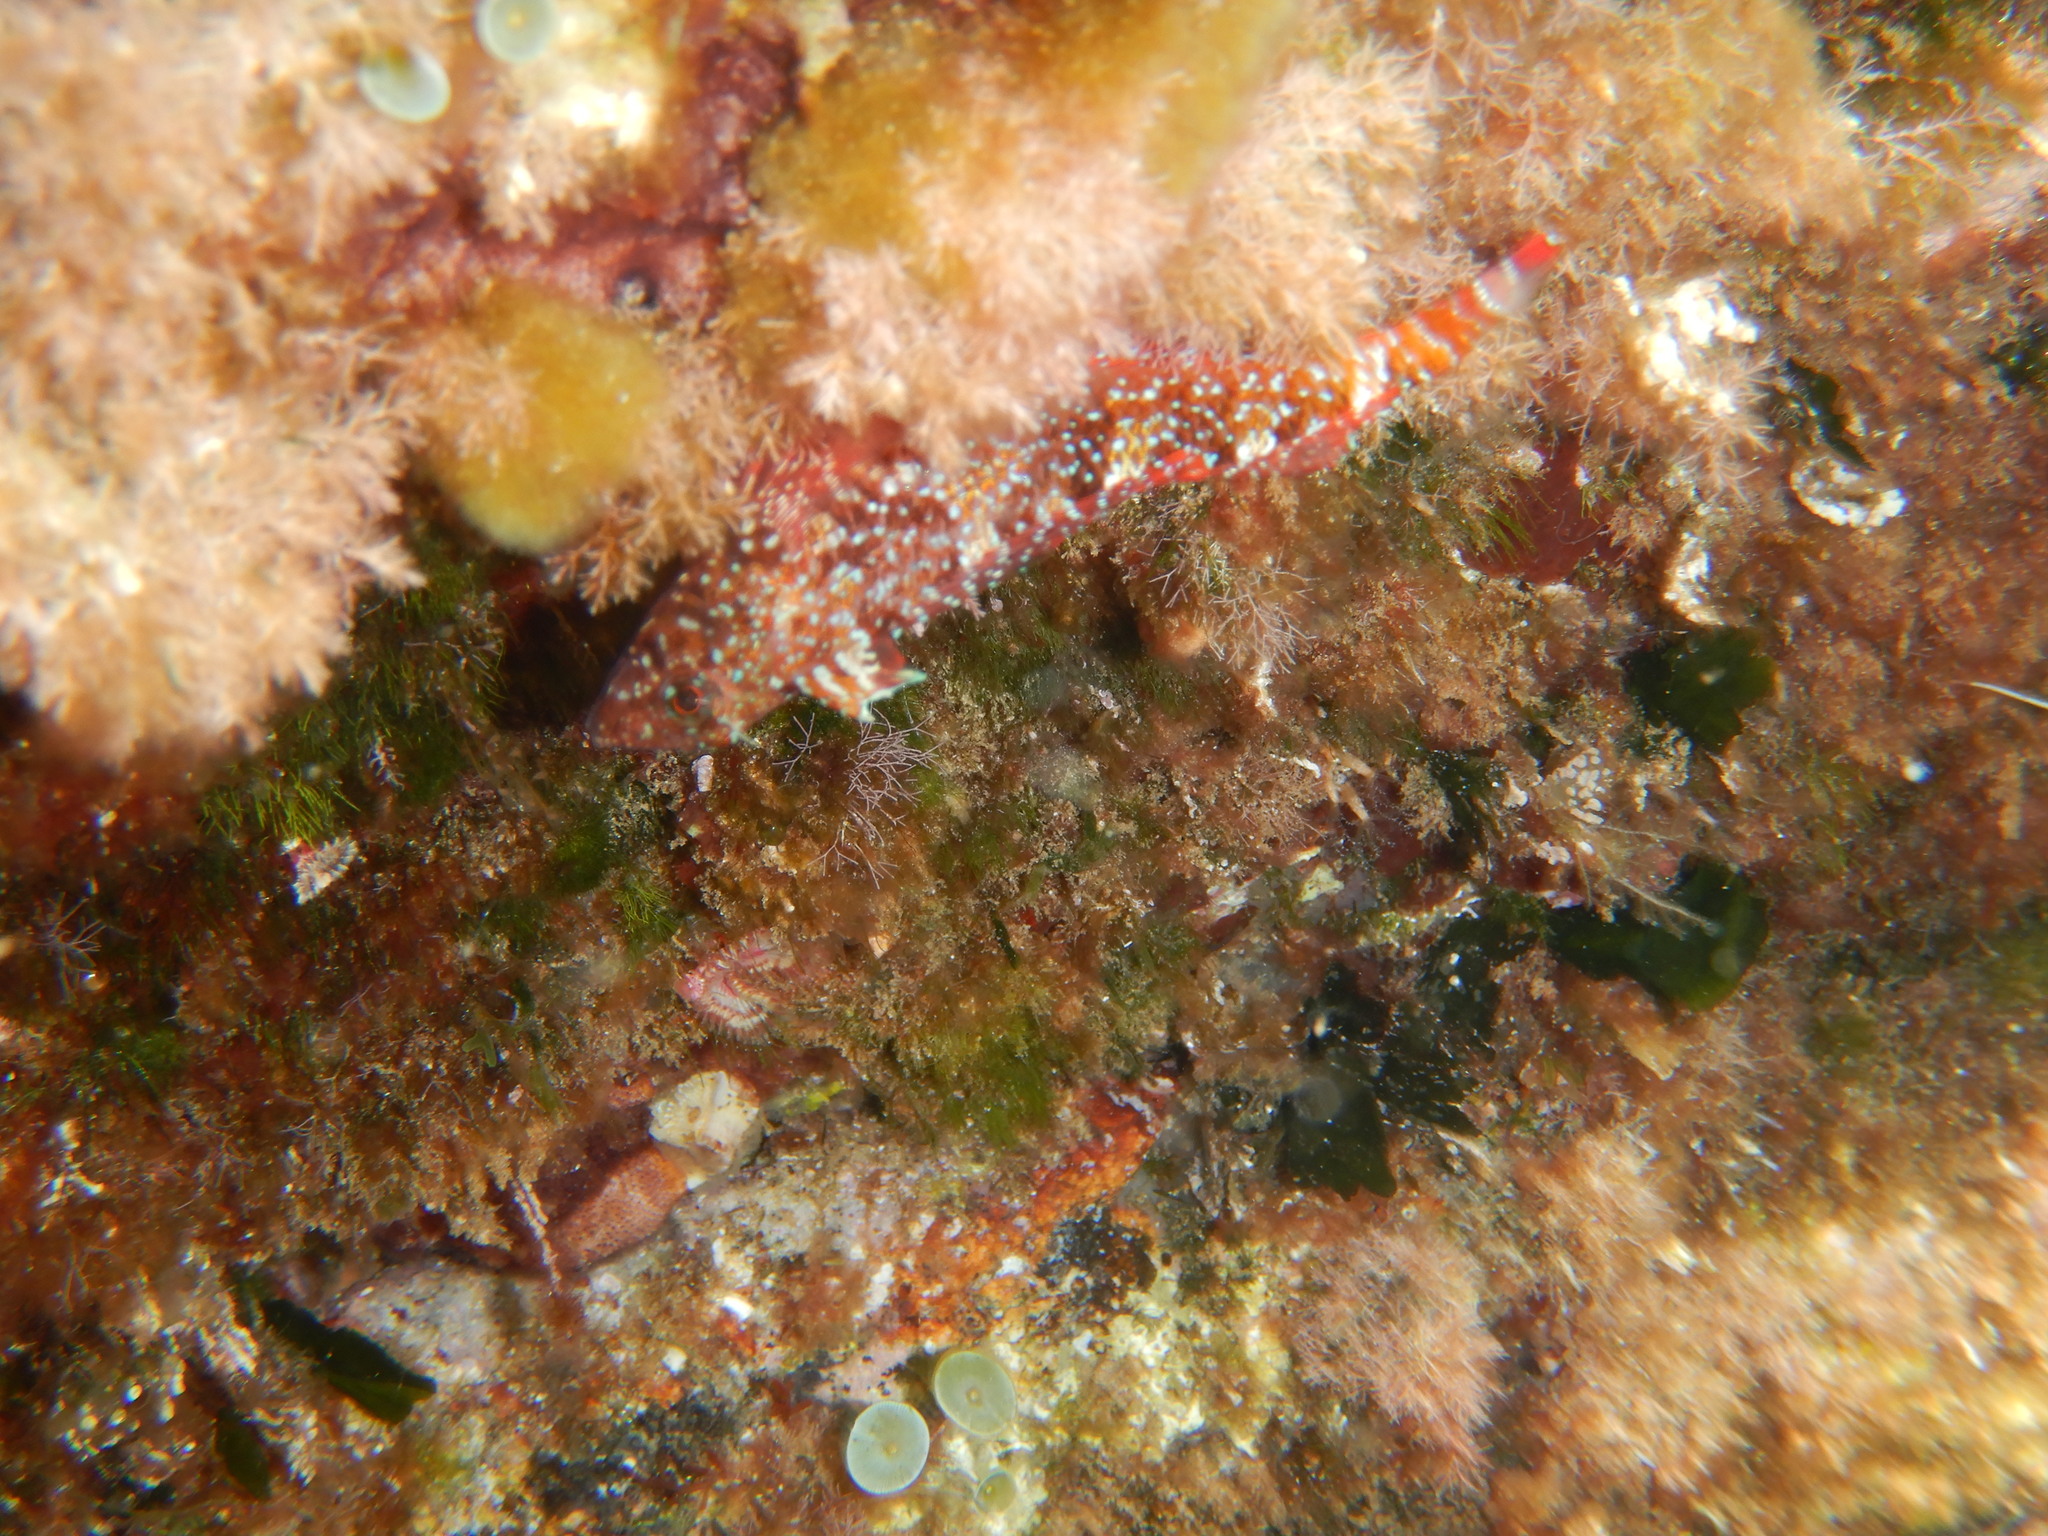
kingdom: Animalia
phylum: Chordata
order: Perciformes
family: Tripterygiidae
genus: Tripterygion
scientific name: Tripterygion tripteronotum
